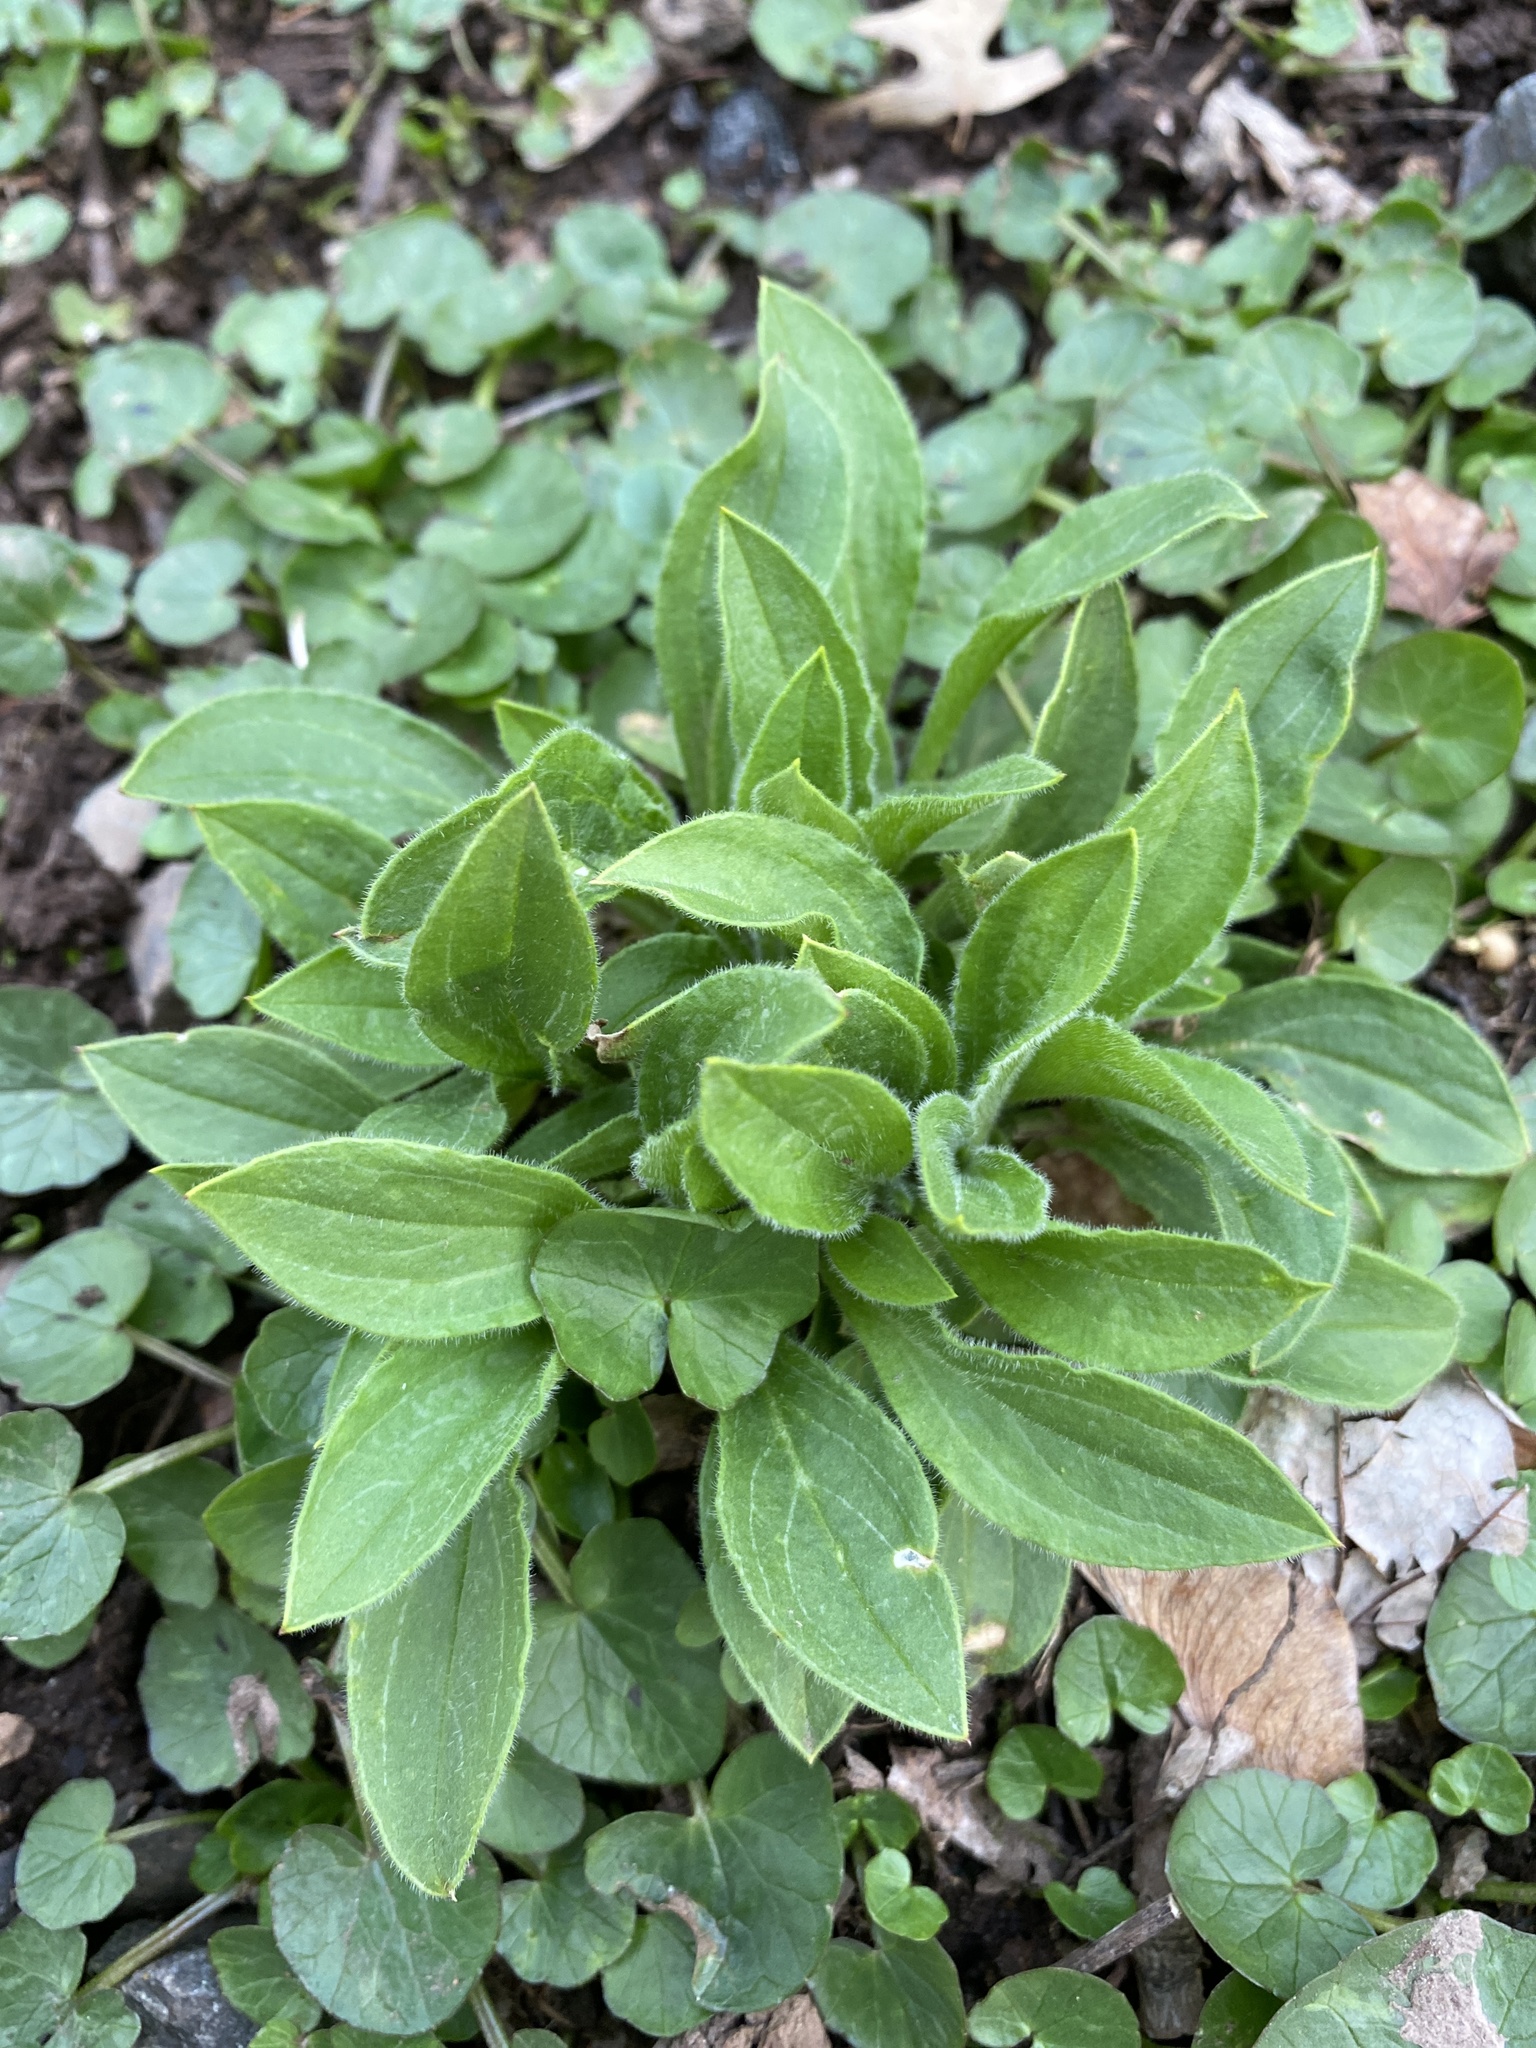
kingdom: Plantae
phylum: Tracheophyta
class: Magnoliopsida
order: Caryophyllales
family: Caryophyllaceae
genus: Silene
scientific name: Silene latifolia
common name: White campion
